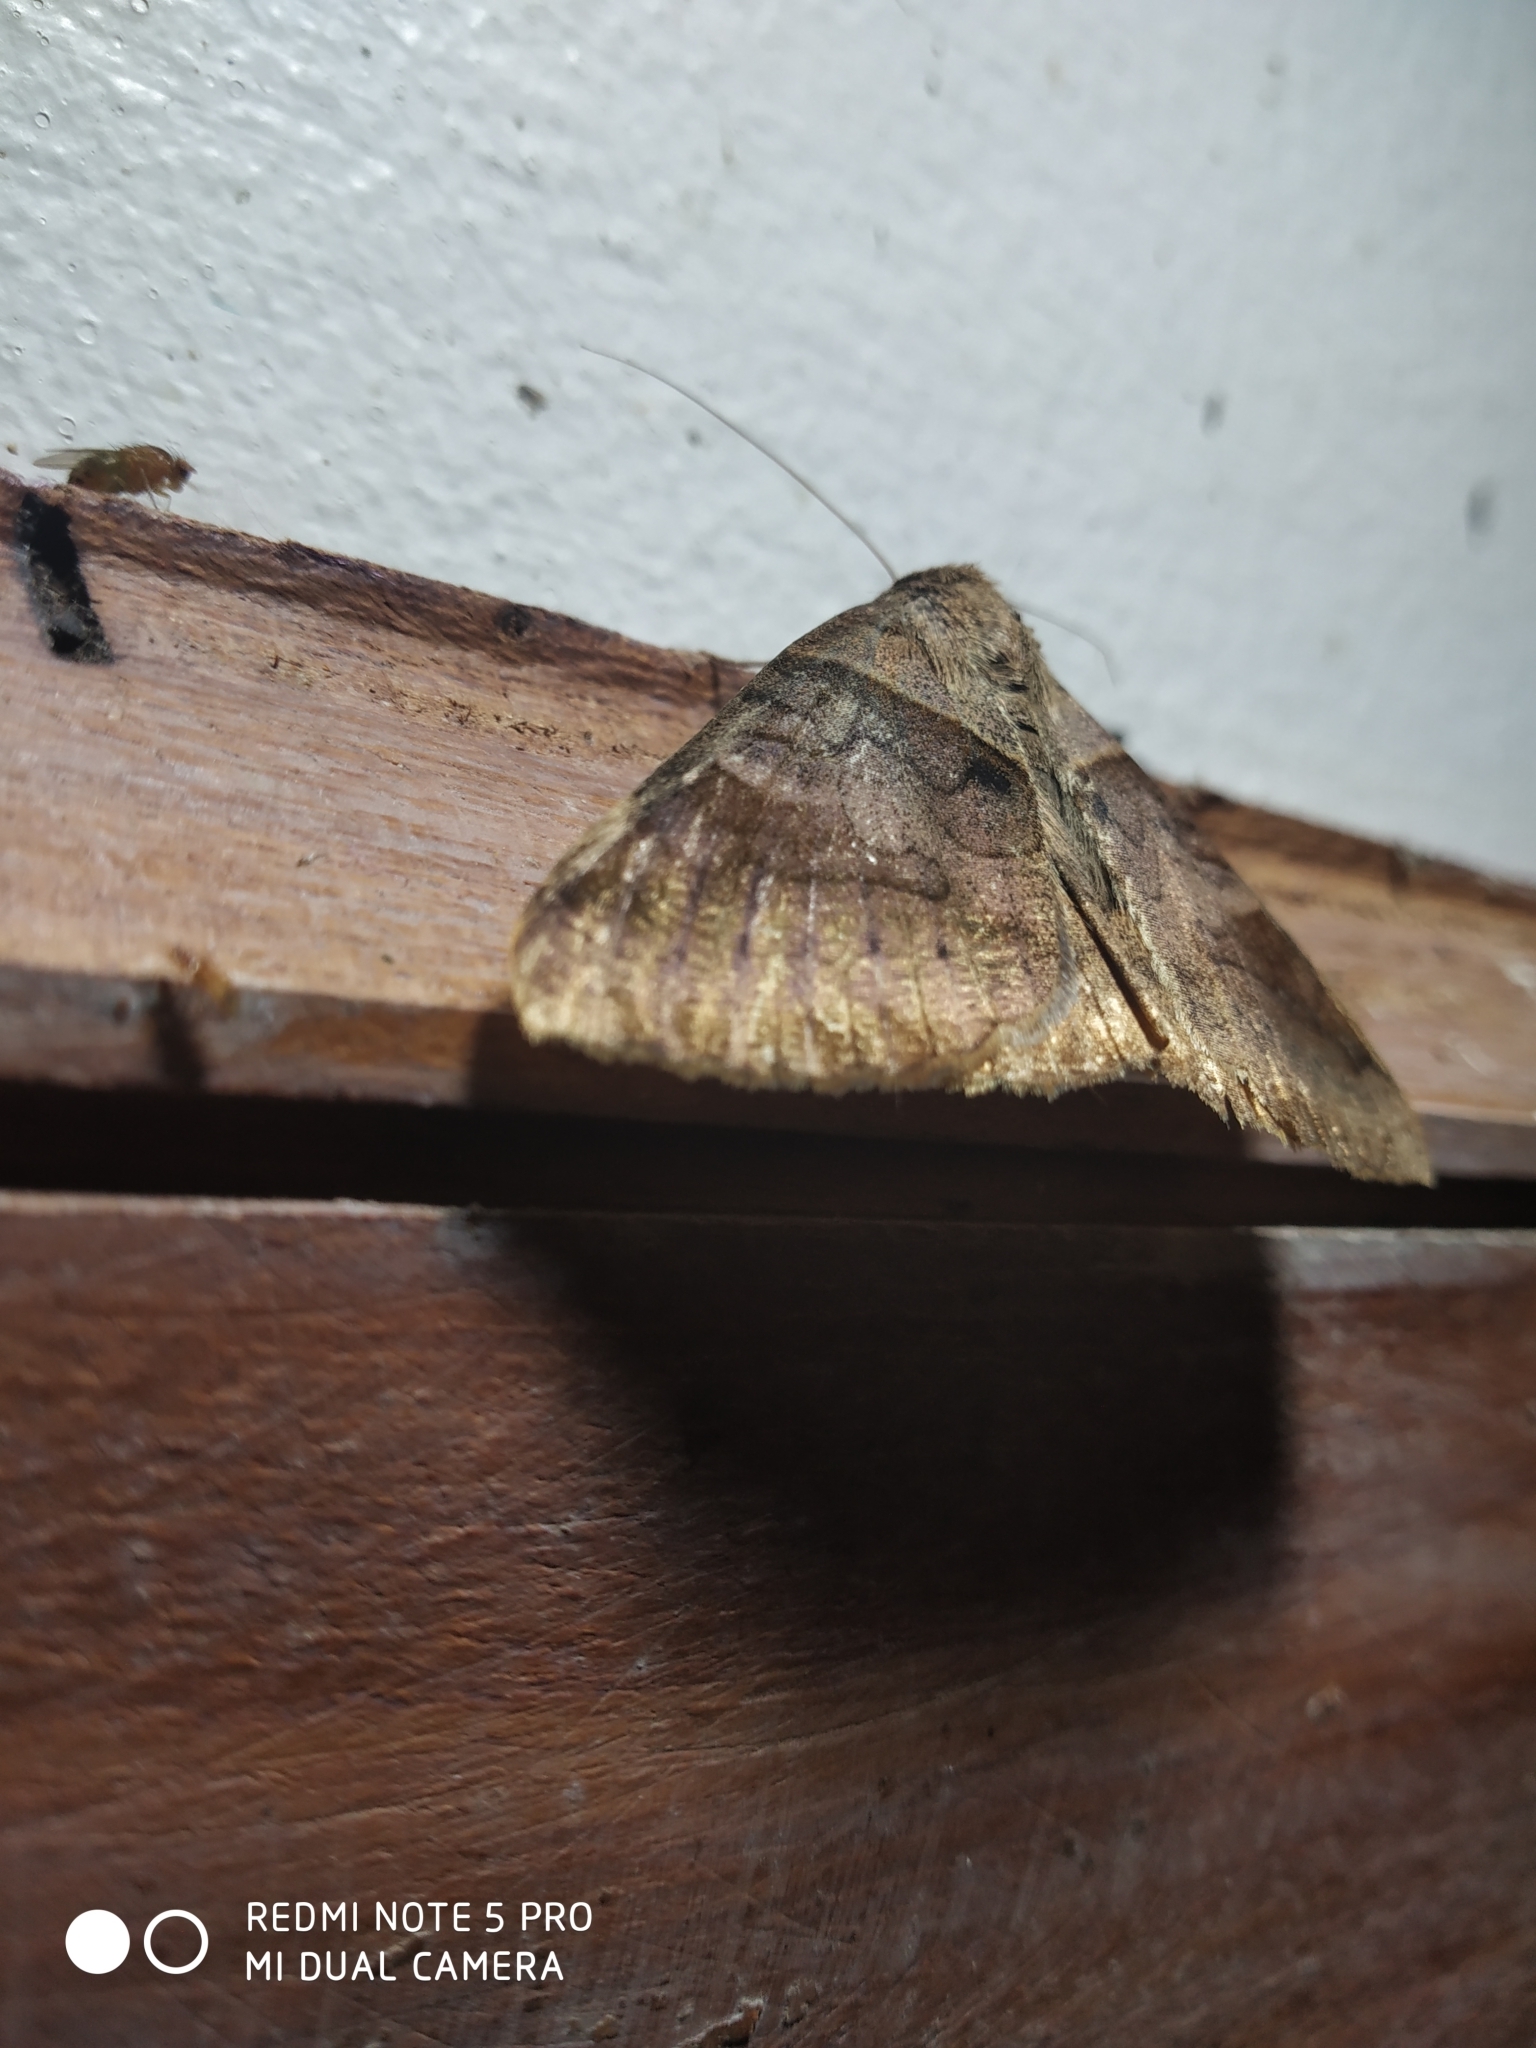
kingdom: Animalia
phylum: Arthropoda
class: Insecta
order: Lepidoptera
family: Erebidae
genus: Mocis
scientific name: Mocis undata
